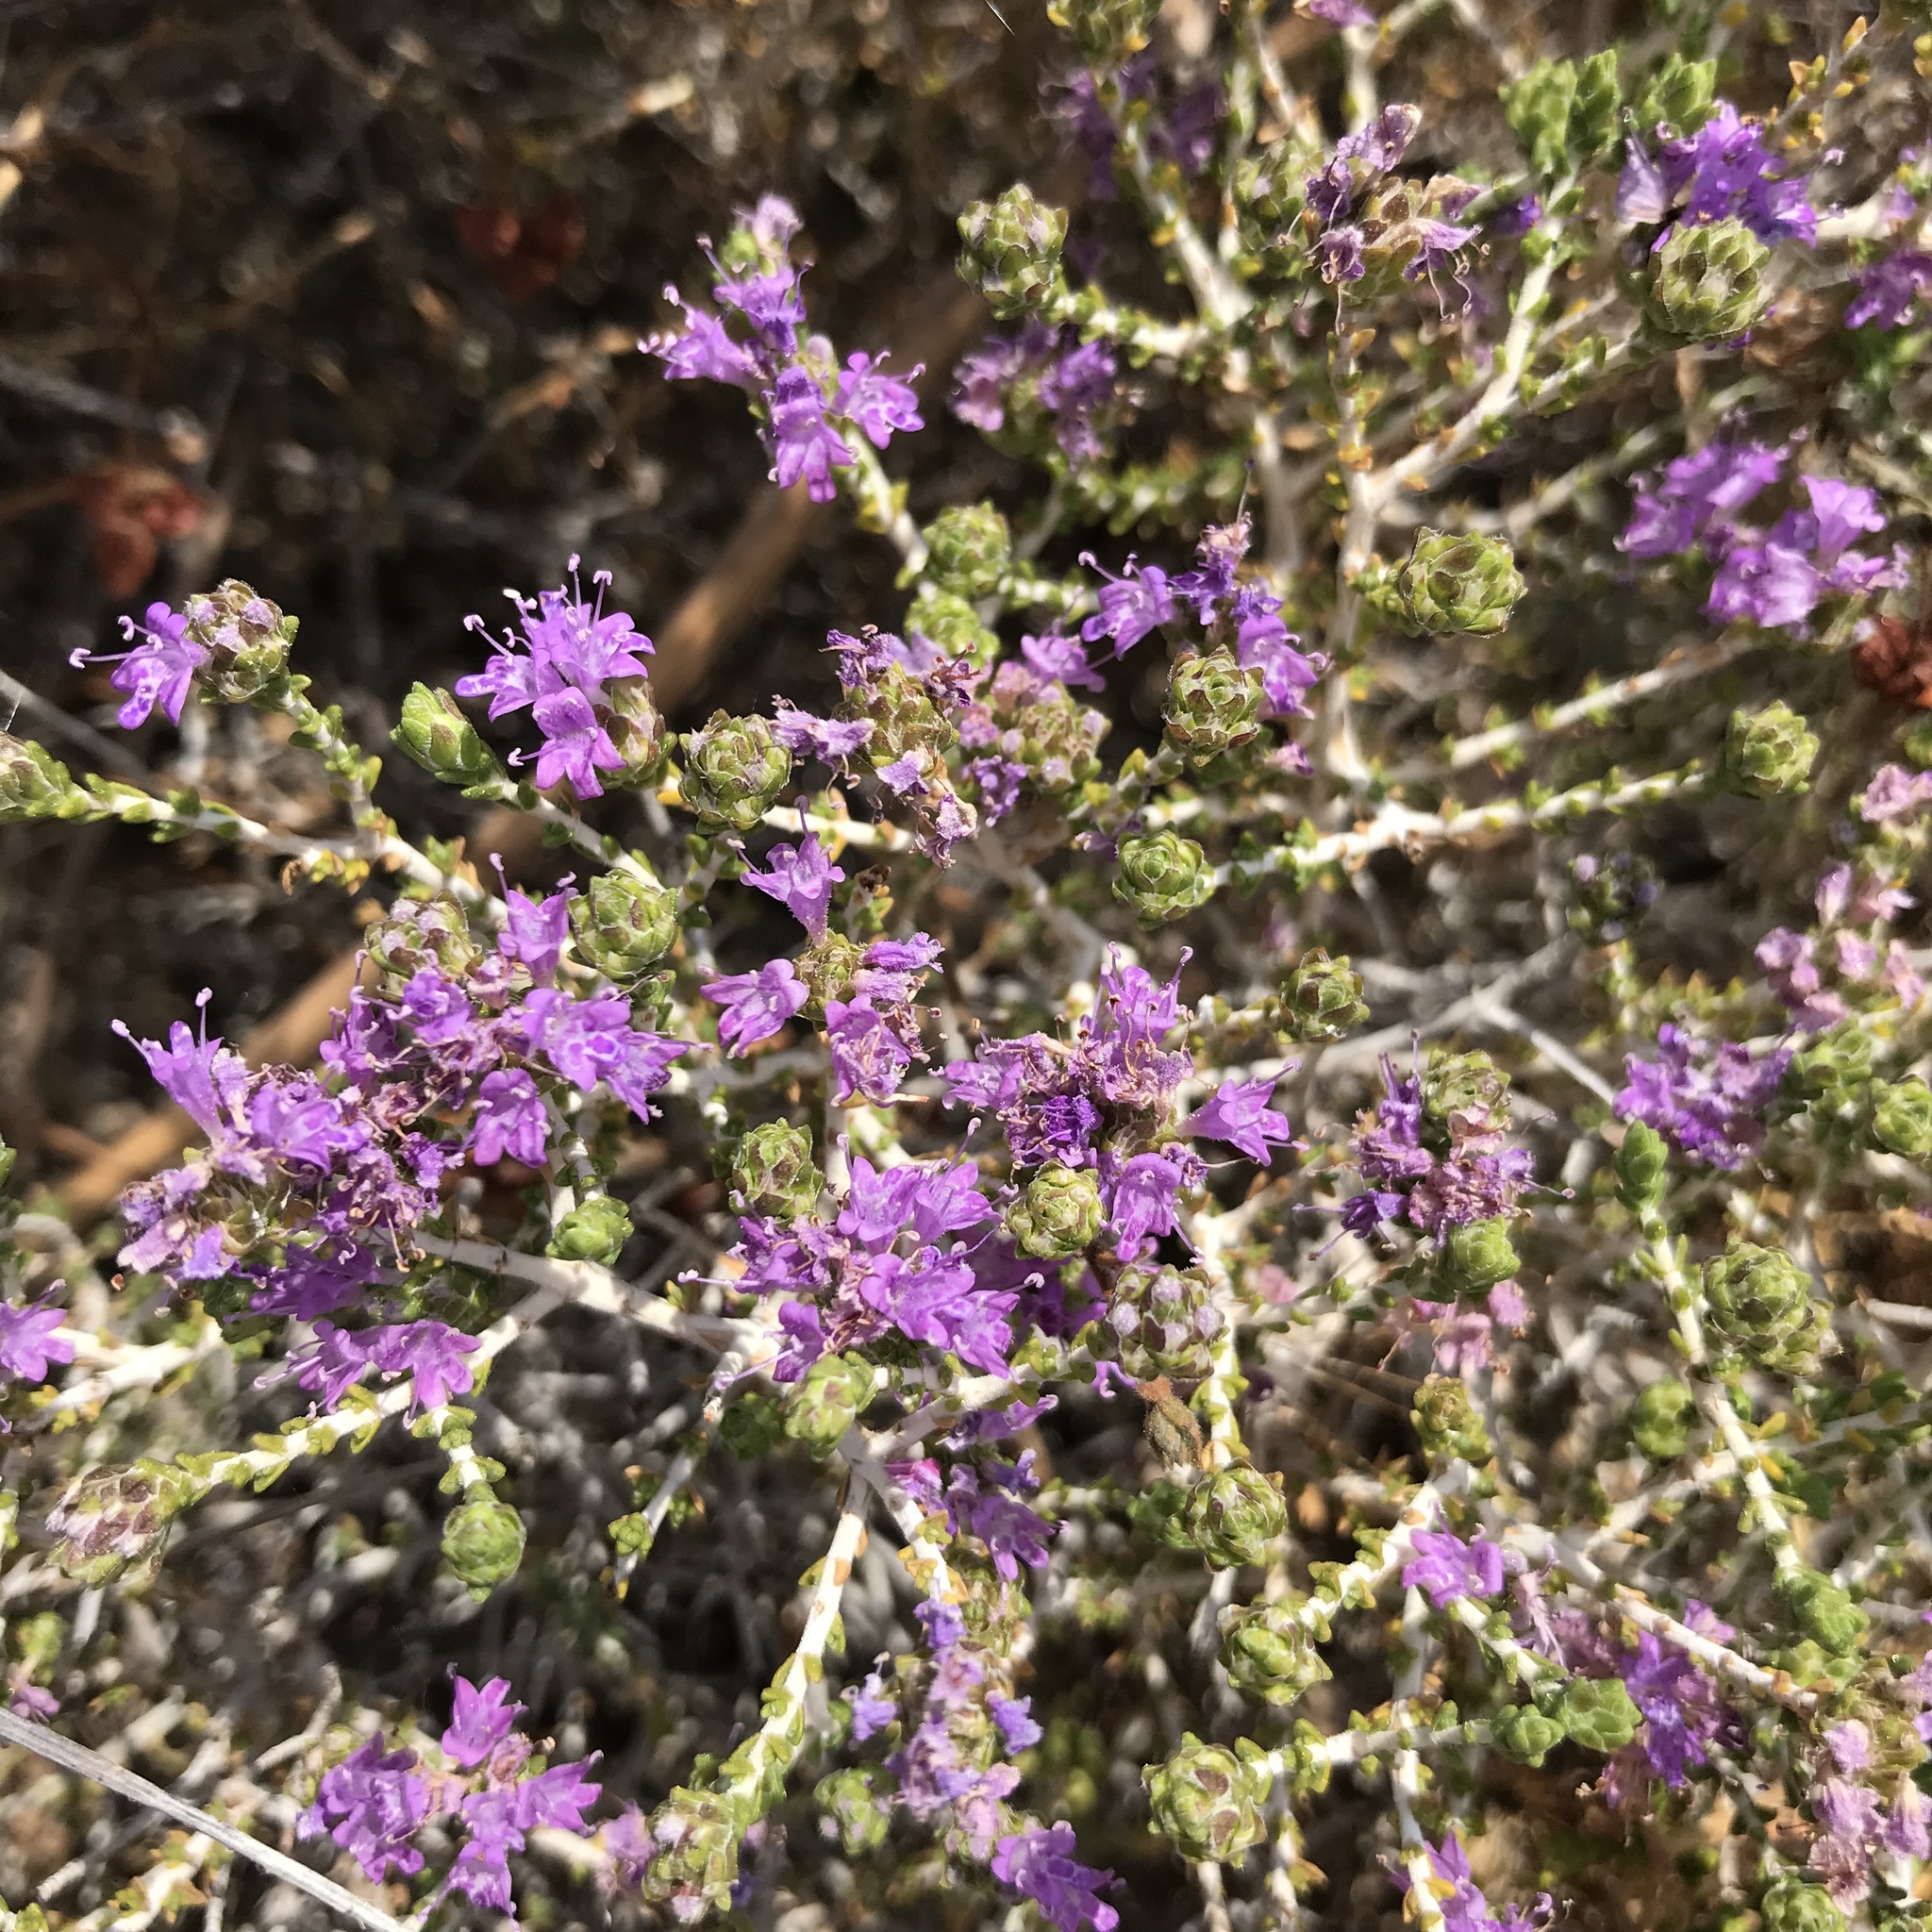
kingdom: Plantae
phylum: Tracheophyta
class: Magnoliopsida
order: Lamiales
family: Lamiaceae
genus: Thymbra
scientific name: Thymbra capitata
